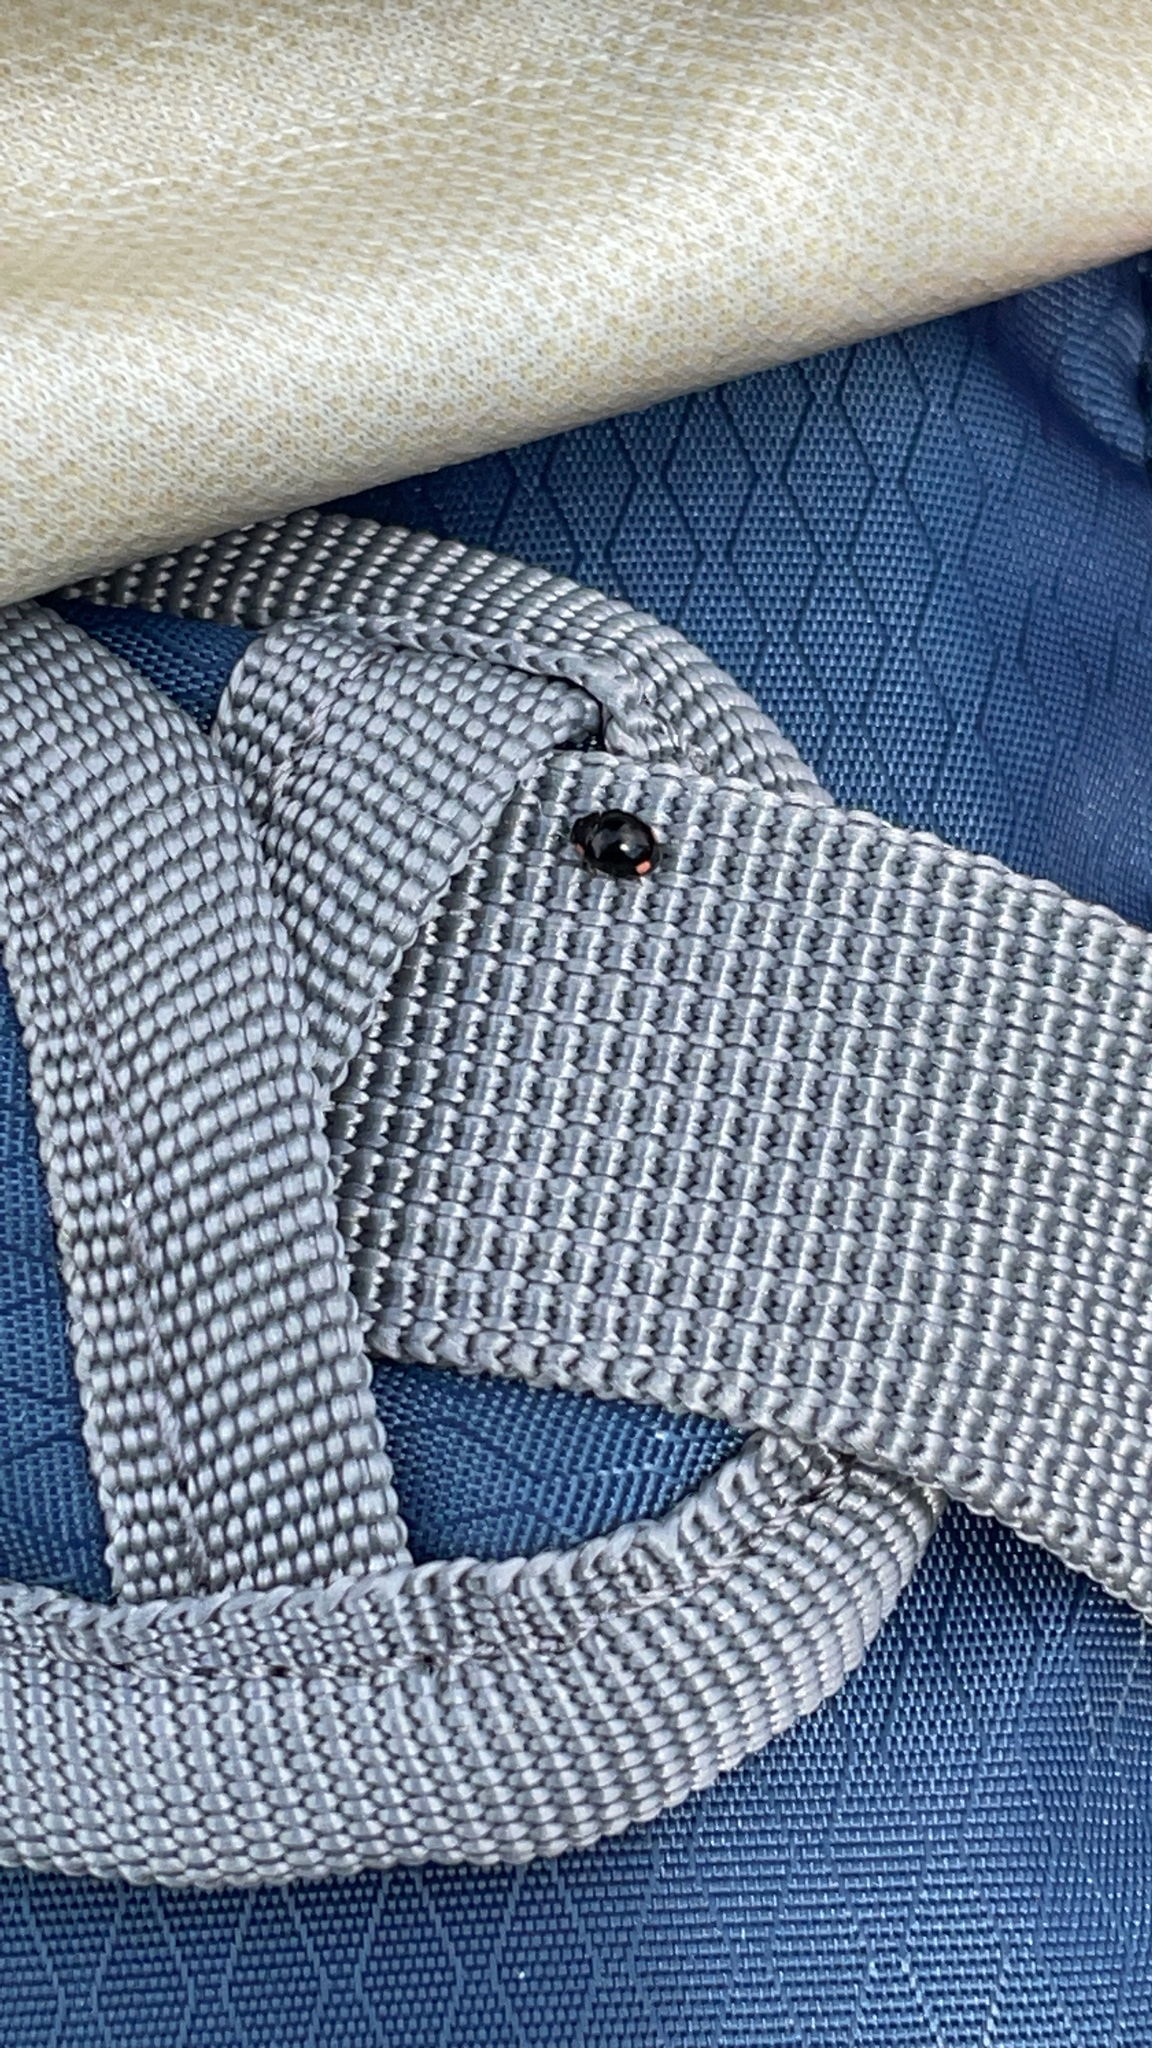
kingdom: Animalia
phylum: Arthropoda
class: Insecta
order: Coleoptera
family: Coccinellidae
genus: Hyperaspis
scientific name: Hyperaspis bigeminata
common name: Bigeminate sigil lady beetle
